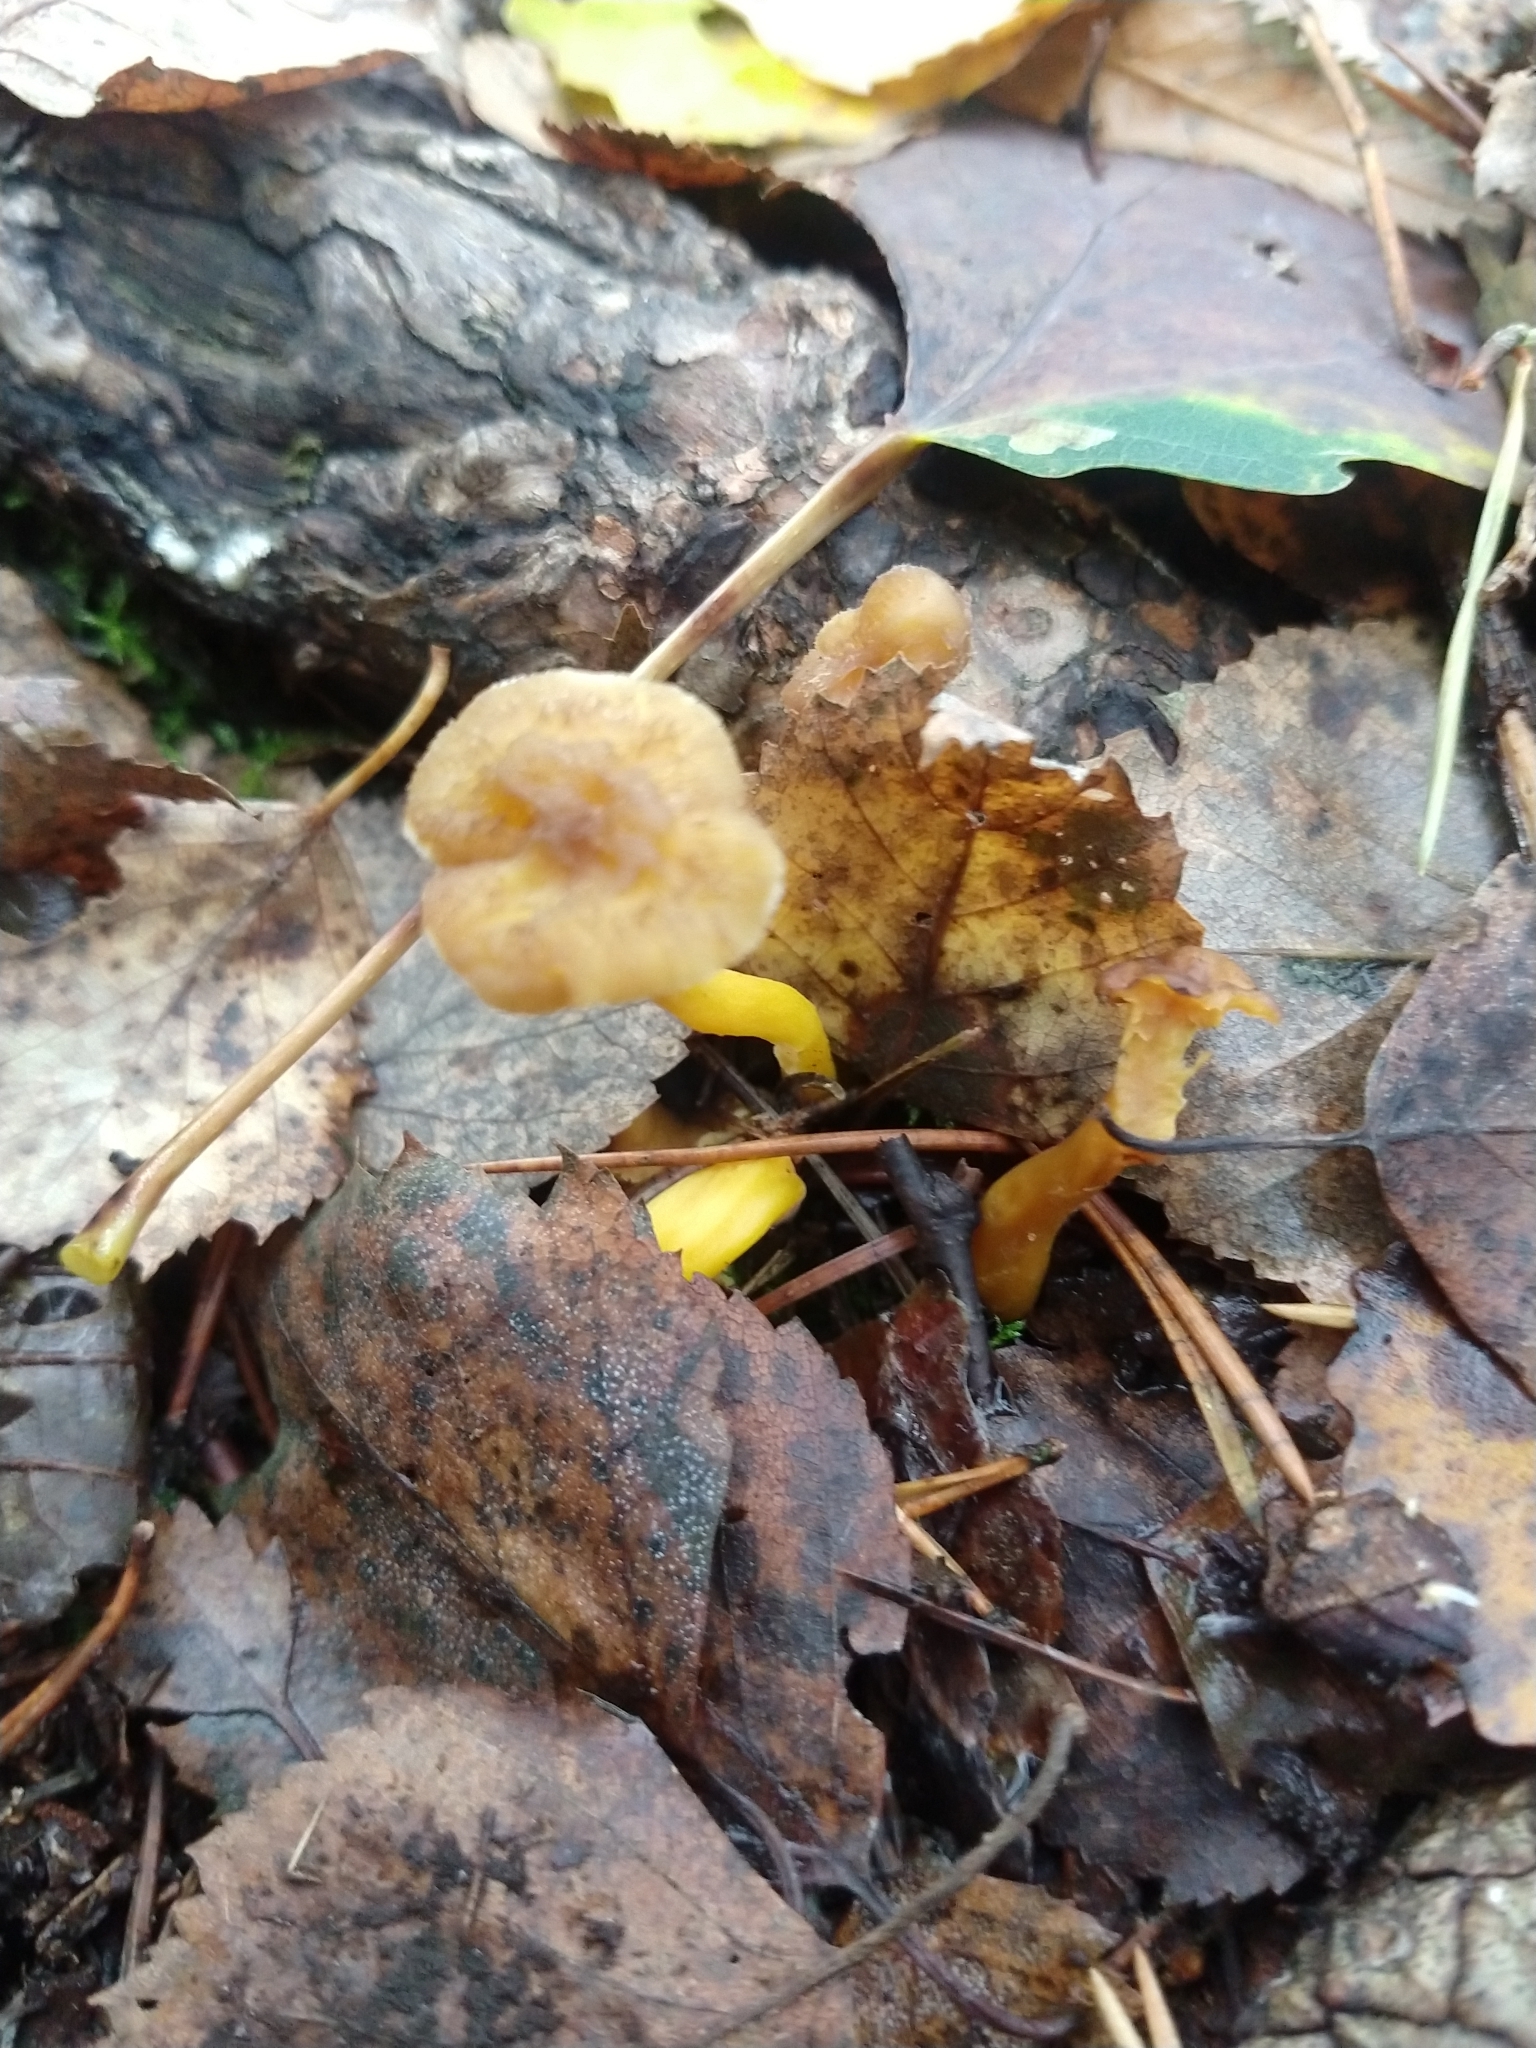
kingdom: Fungi
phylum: Basidiomycota
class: Agaricomycetes
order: Cantharellales
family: Hydnaceae
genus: Craterellus
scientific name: Craterellus tubaeformis
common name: Yellowfoot
